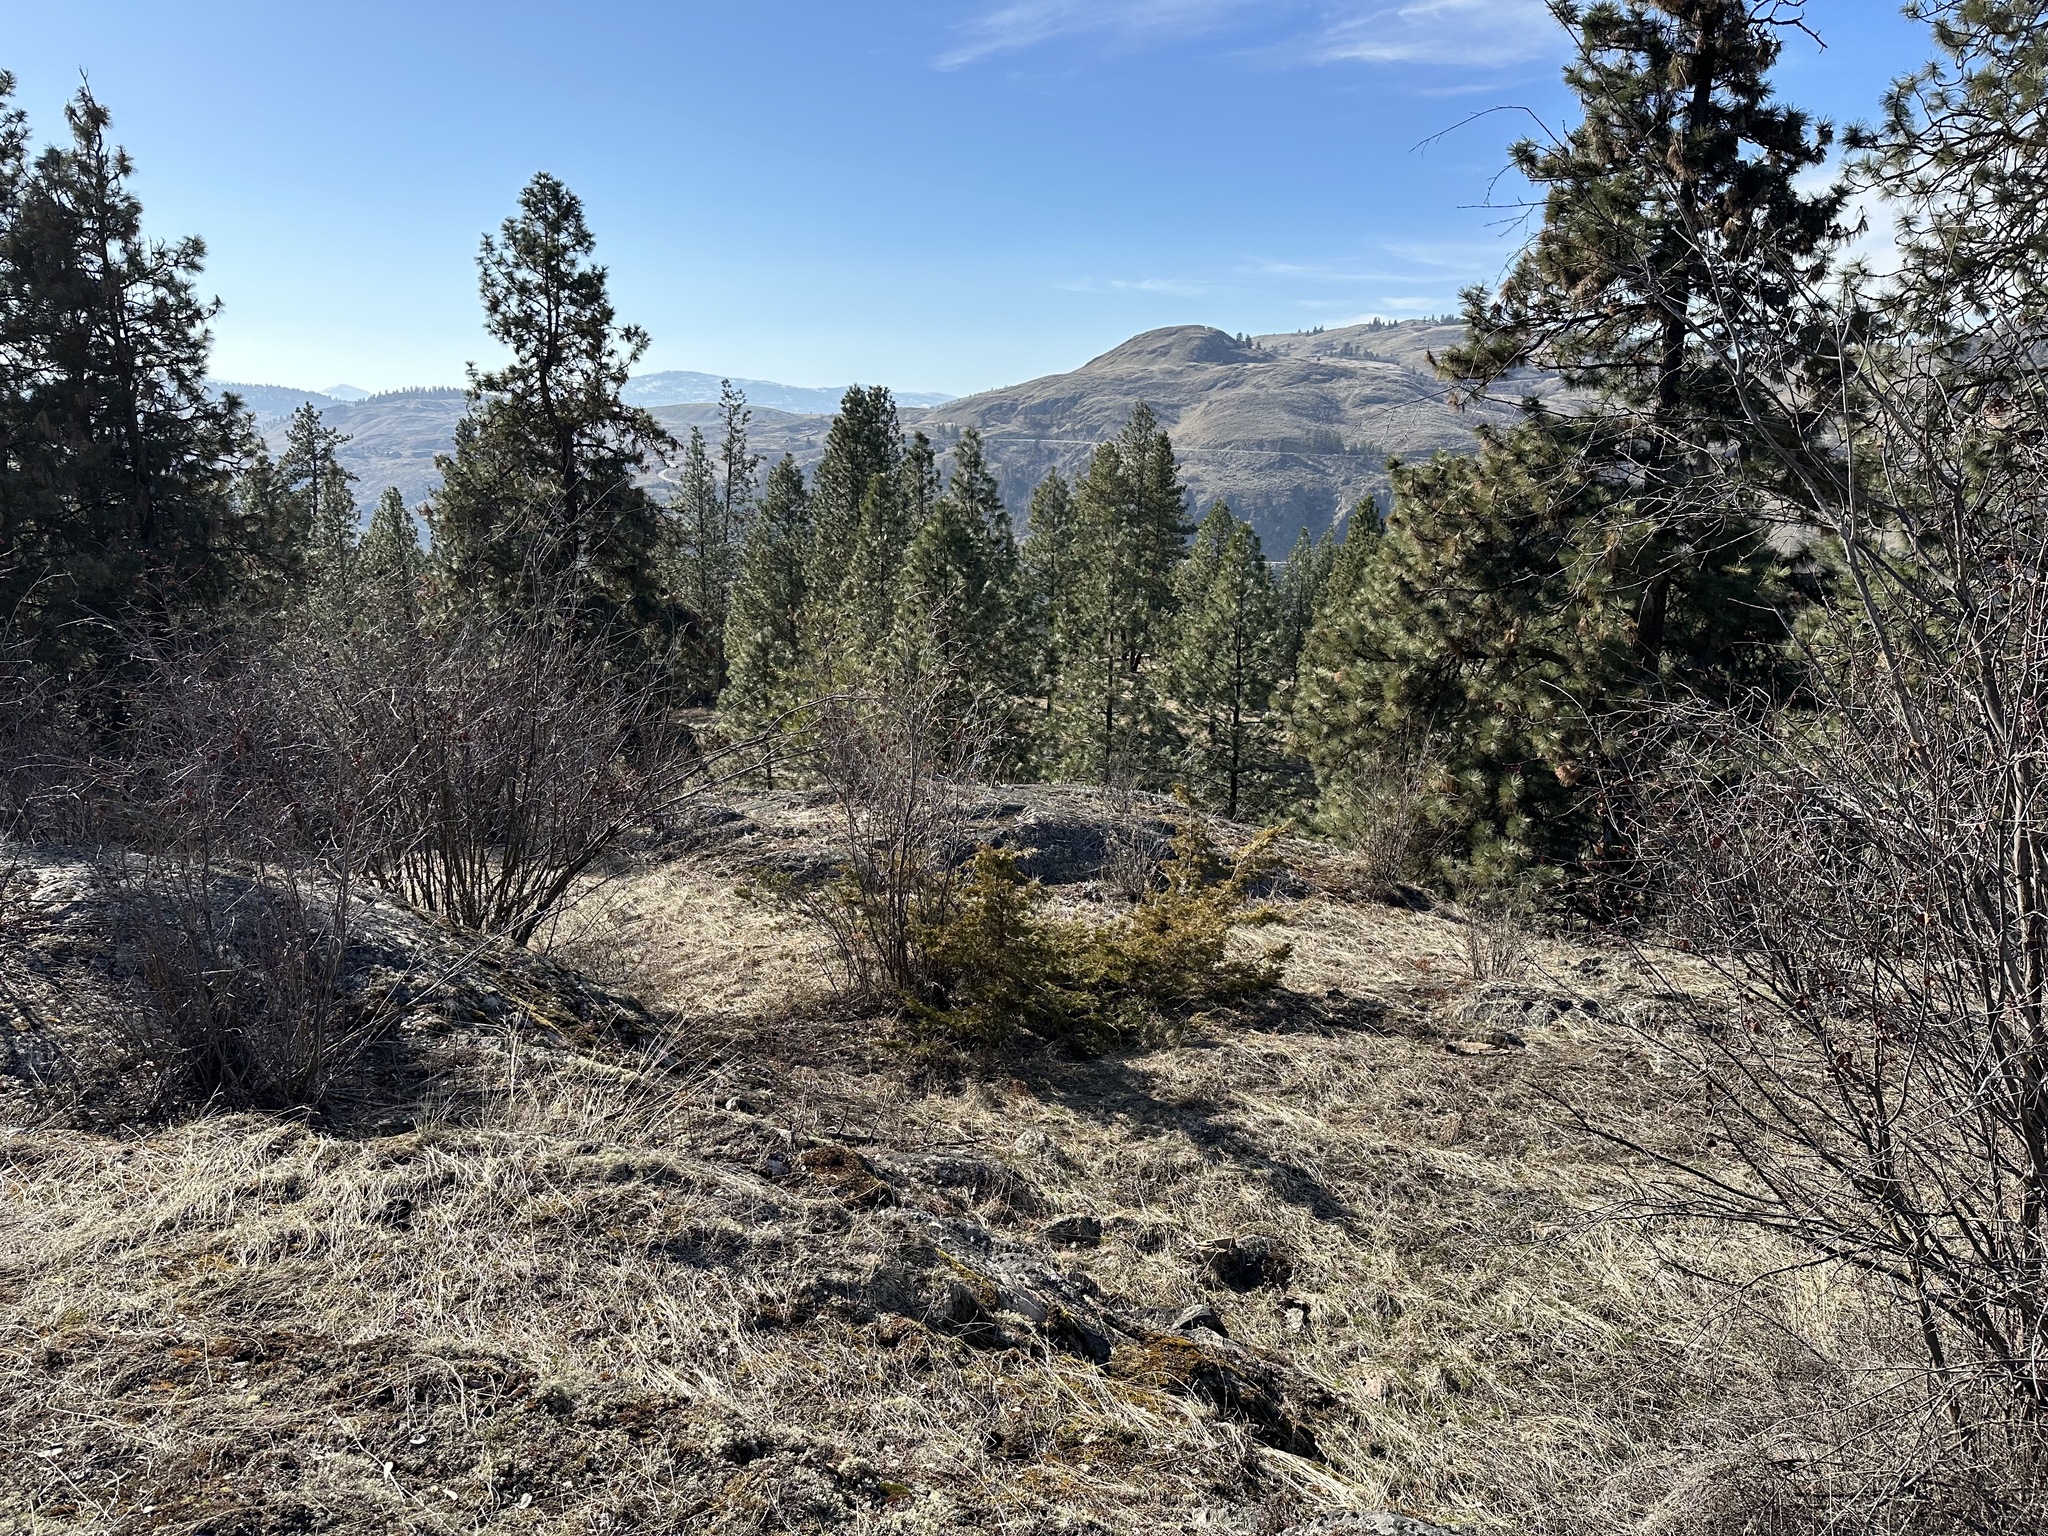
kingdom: Plantae
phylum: Tracheophyta
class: Pinopsida
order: Pinales
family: Cupressaceae
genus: Juniperus
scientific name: Juniperus scopulorum
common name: Rocky mountain juniper
